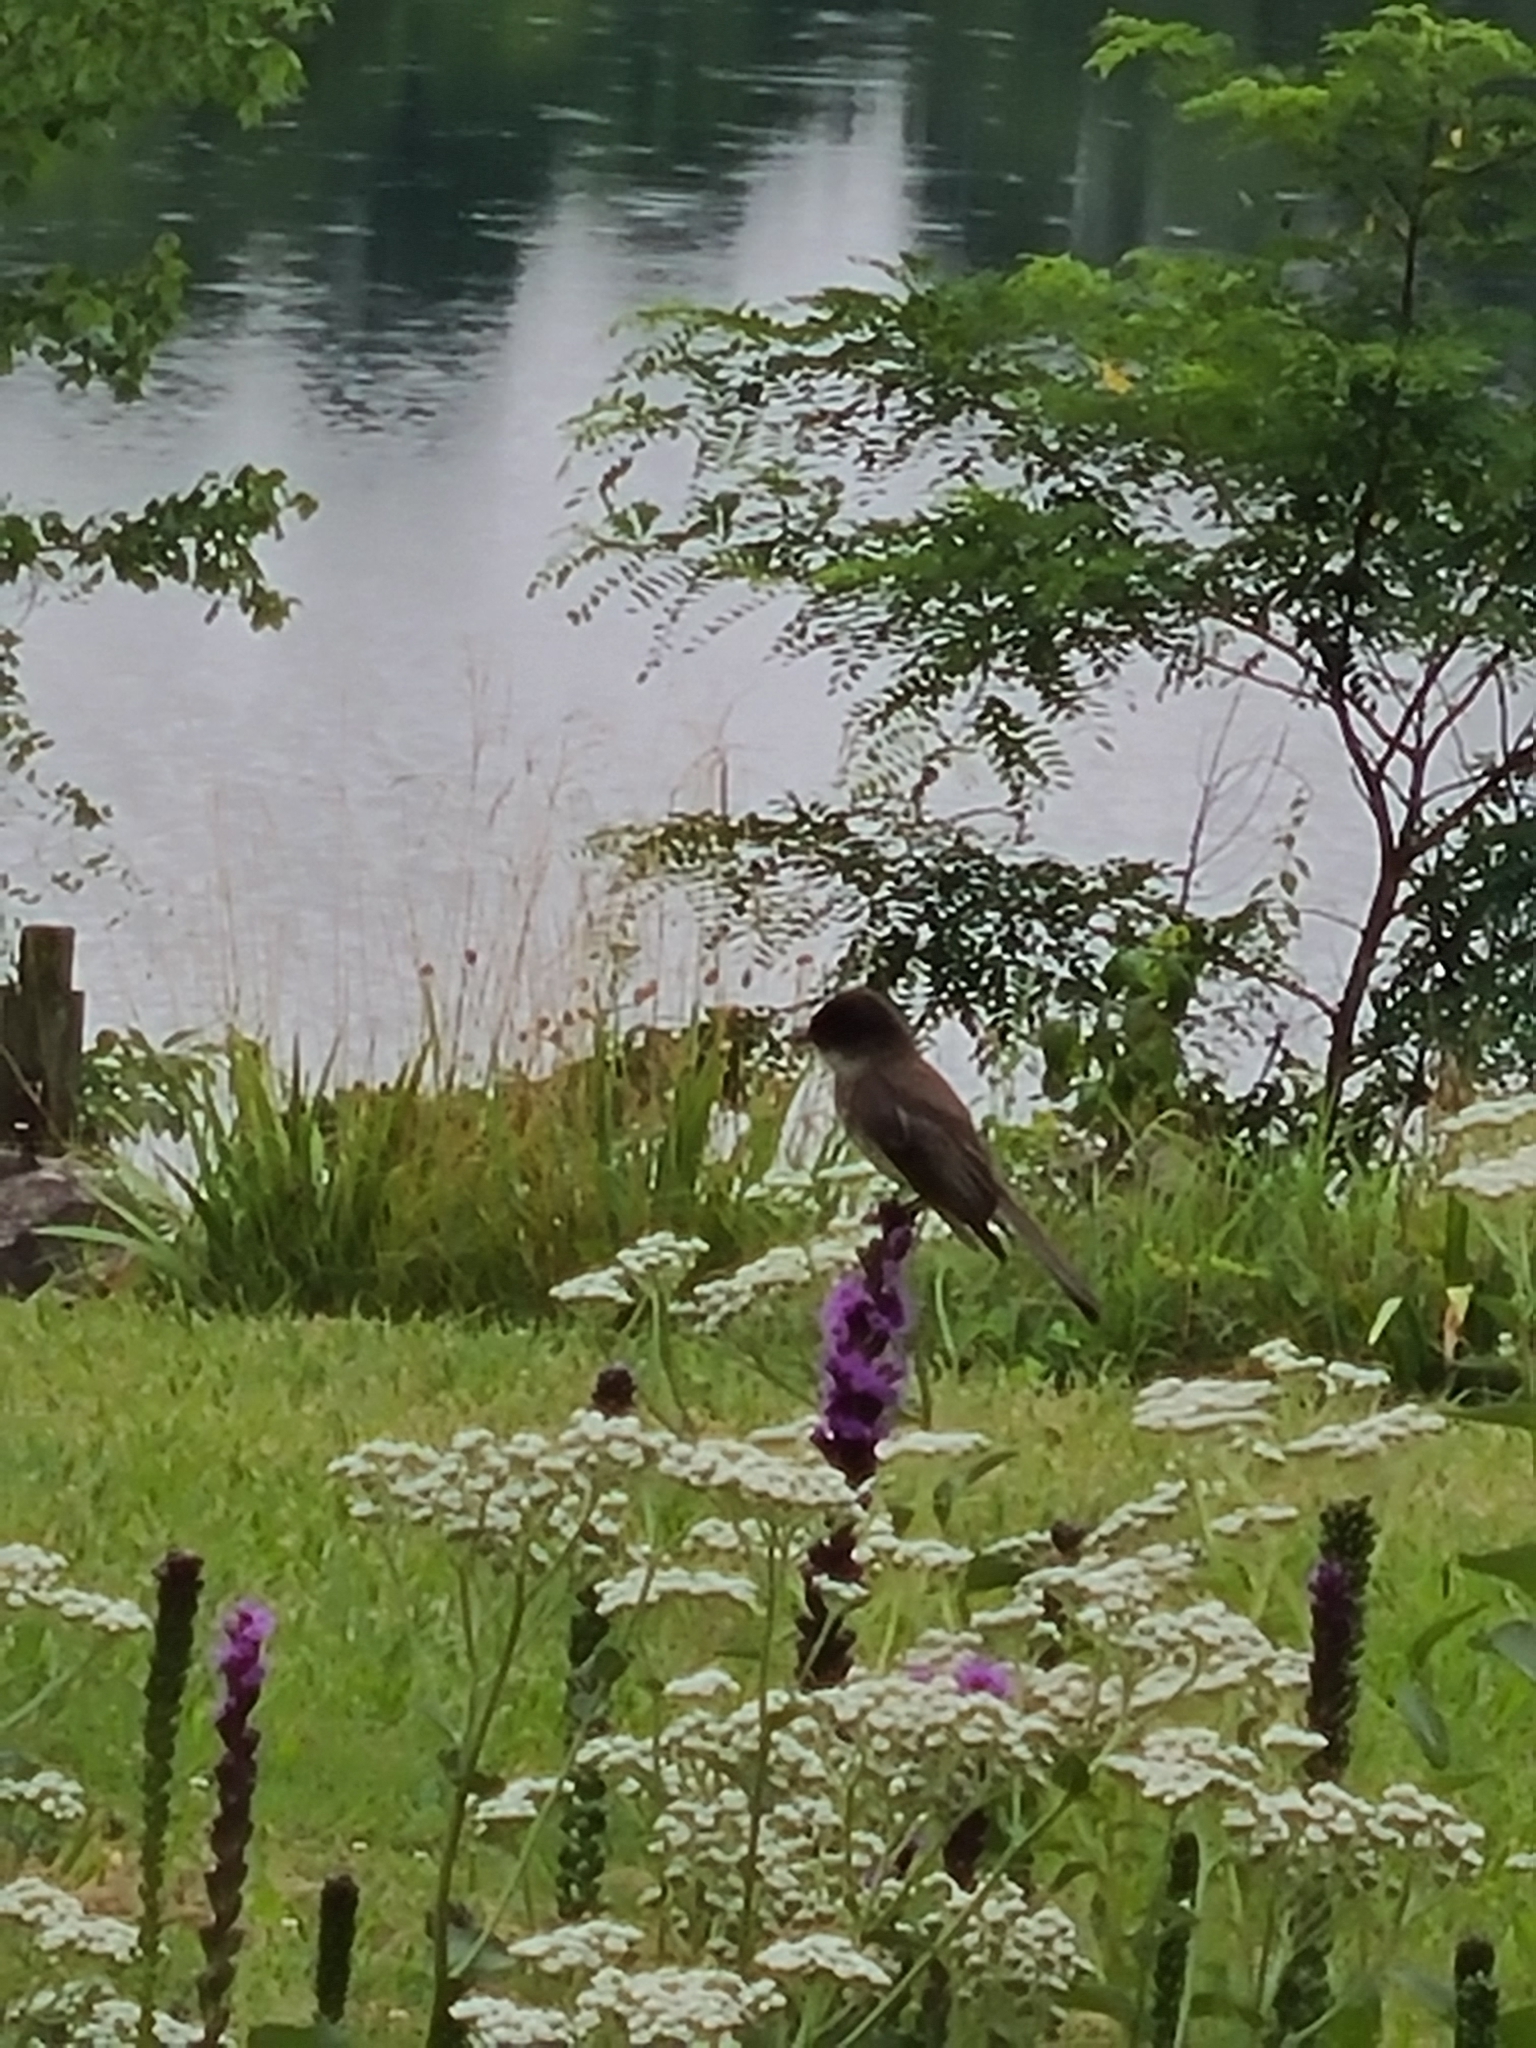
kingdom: Animalia
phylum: Chordata
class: Aves
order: Passeriformes
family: Tyrannidae
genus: Sayornis
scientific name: Sayornis phoebe
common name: Eastern phoebe
